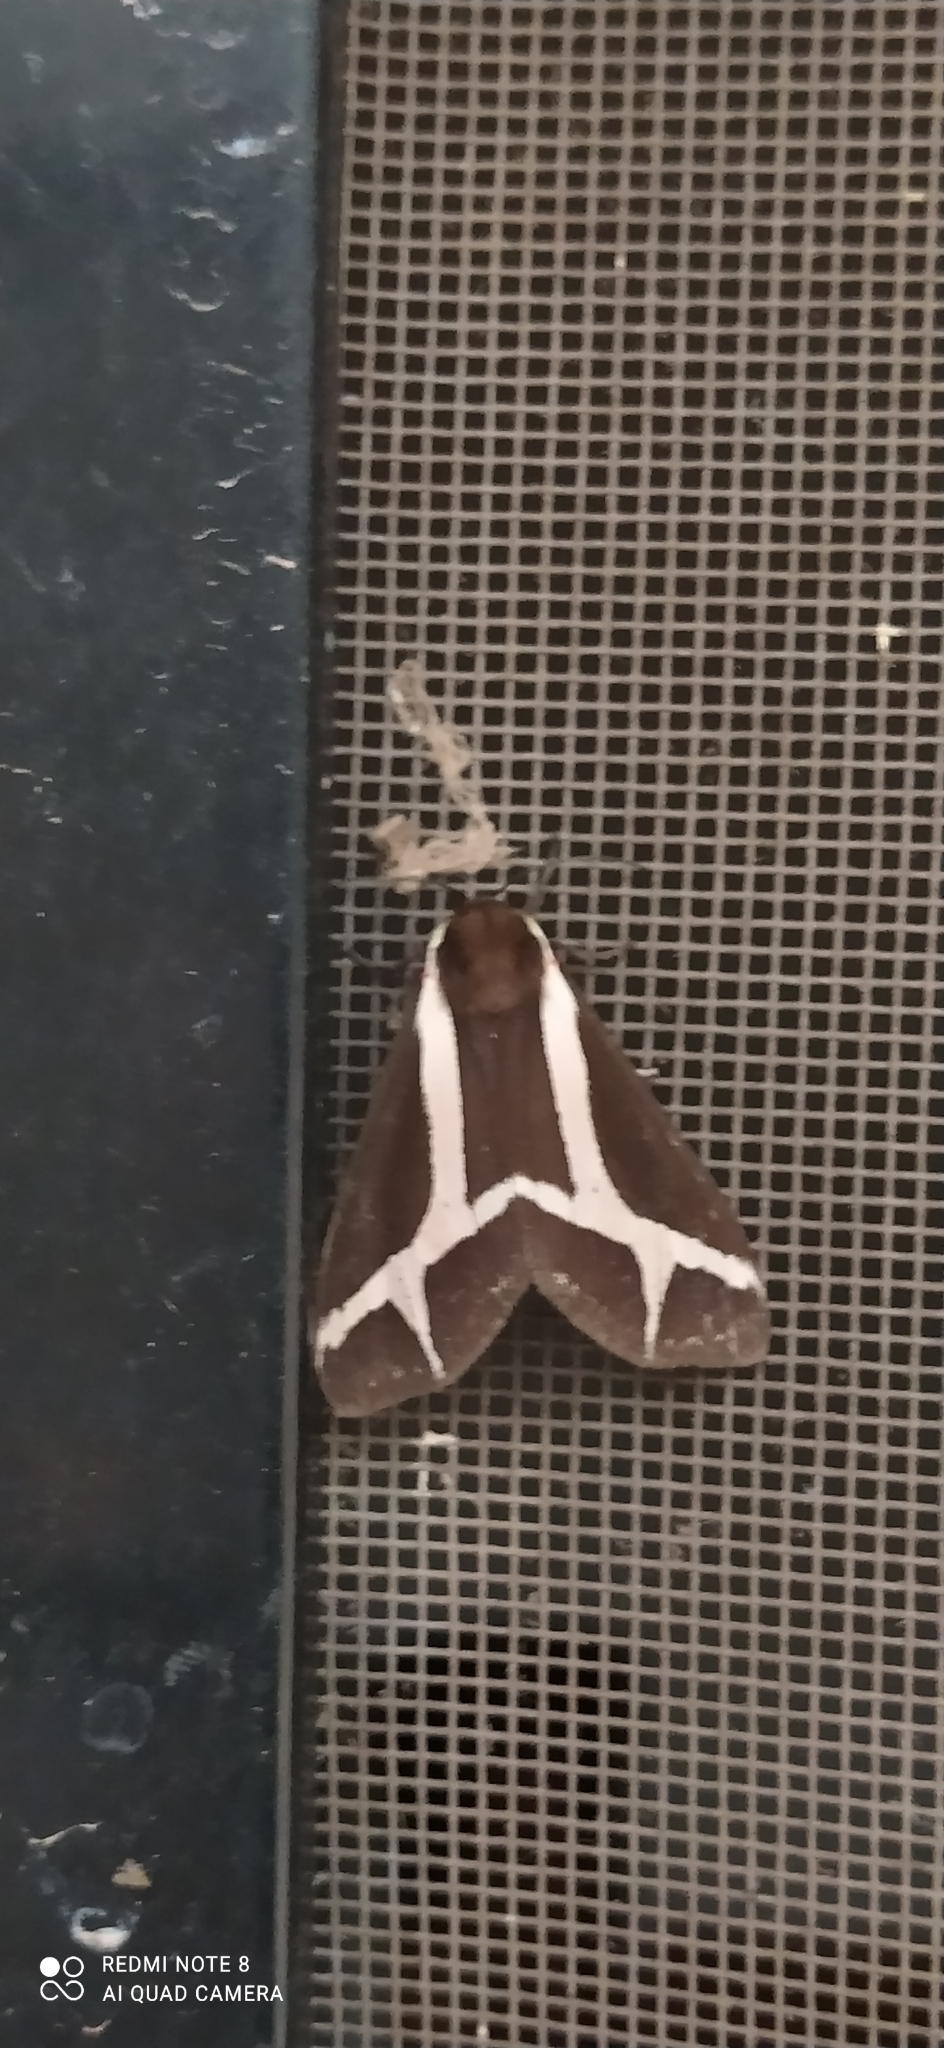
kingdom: Animalia
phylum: Arthropoda
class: Insecta
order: Lepidoptera
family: Erebidae
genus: Dysschema
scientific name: Dysschema sacrifica
